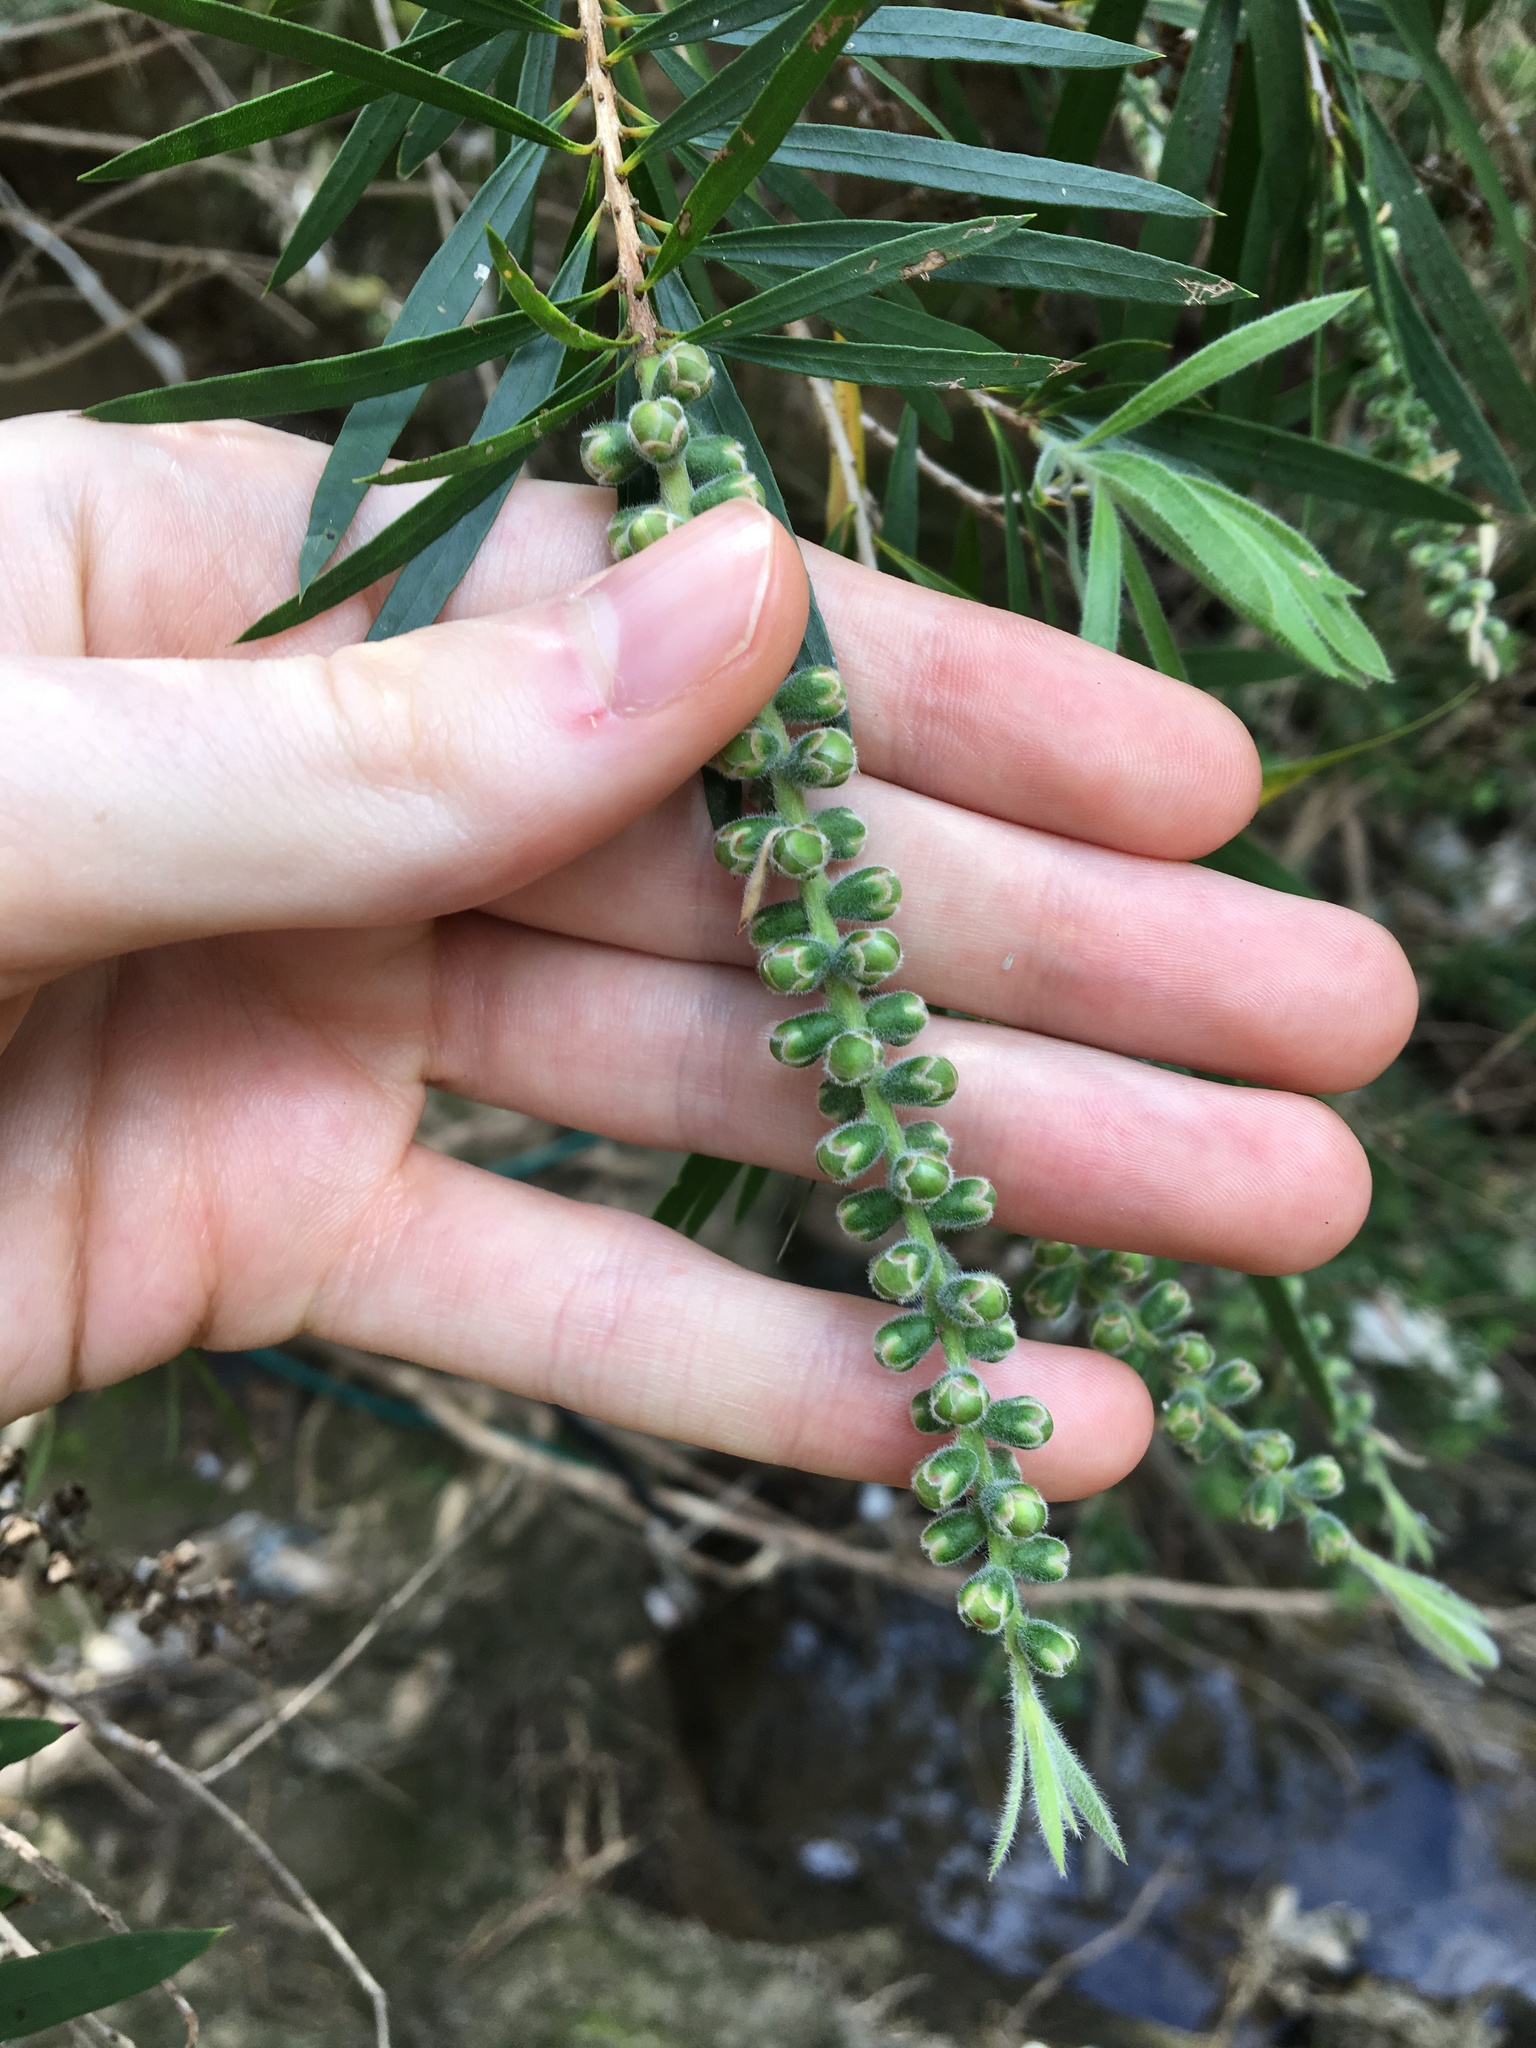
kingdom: Plantae
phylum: Tracheophyta
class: Magnoliopsida
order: Myrtales
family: Myrtaceae
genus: Callistemon
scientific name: Callistemon viminalis
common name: Drooping bottlebrush
